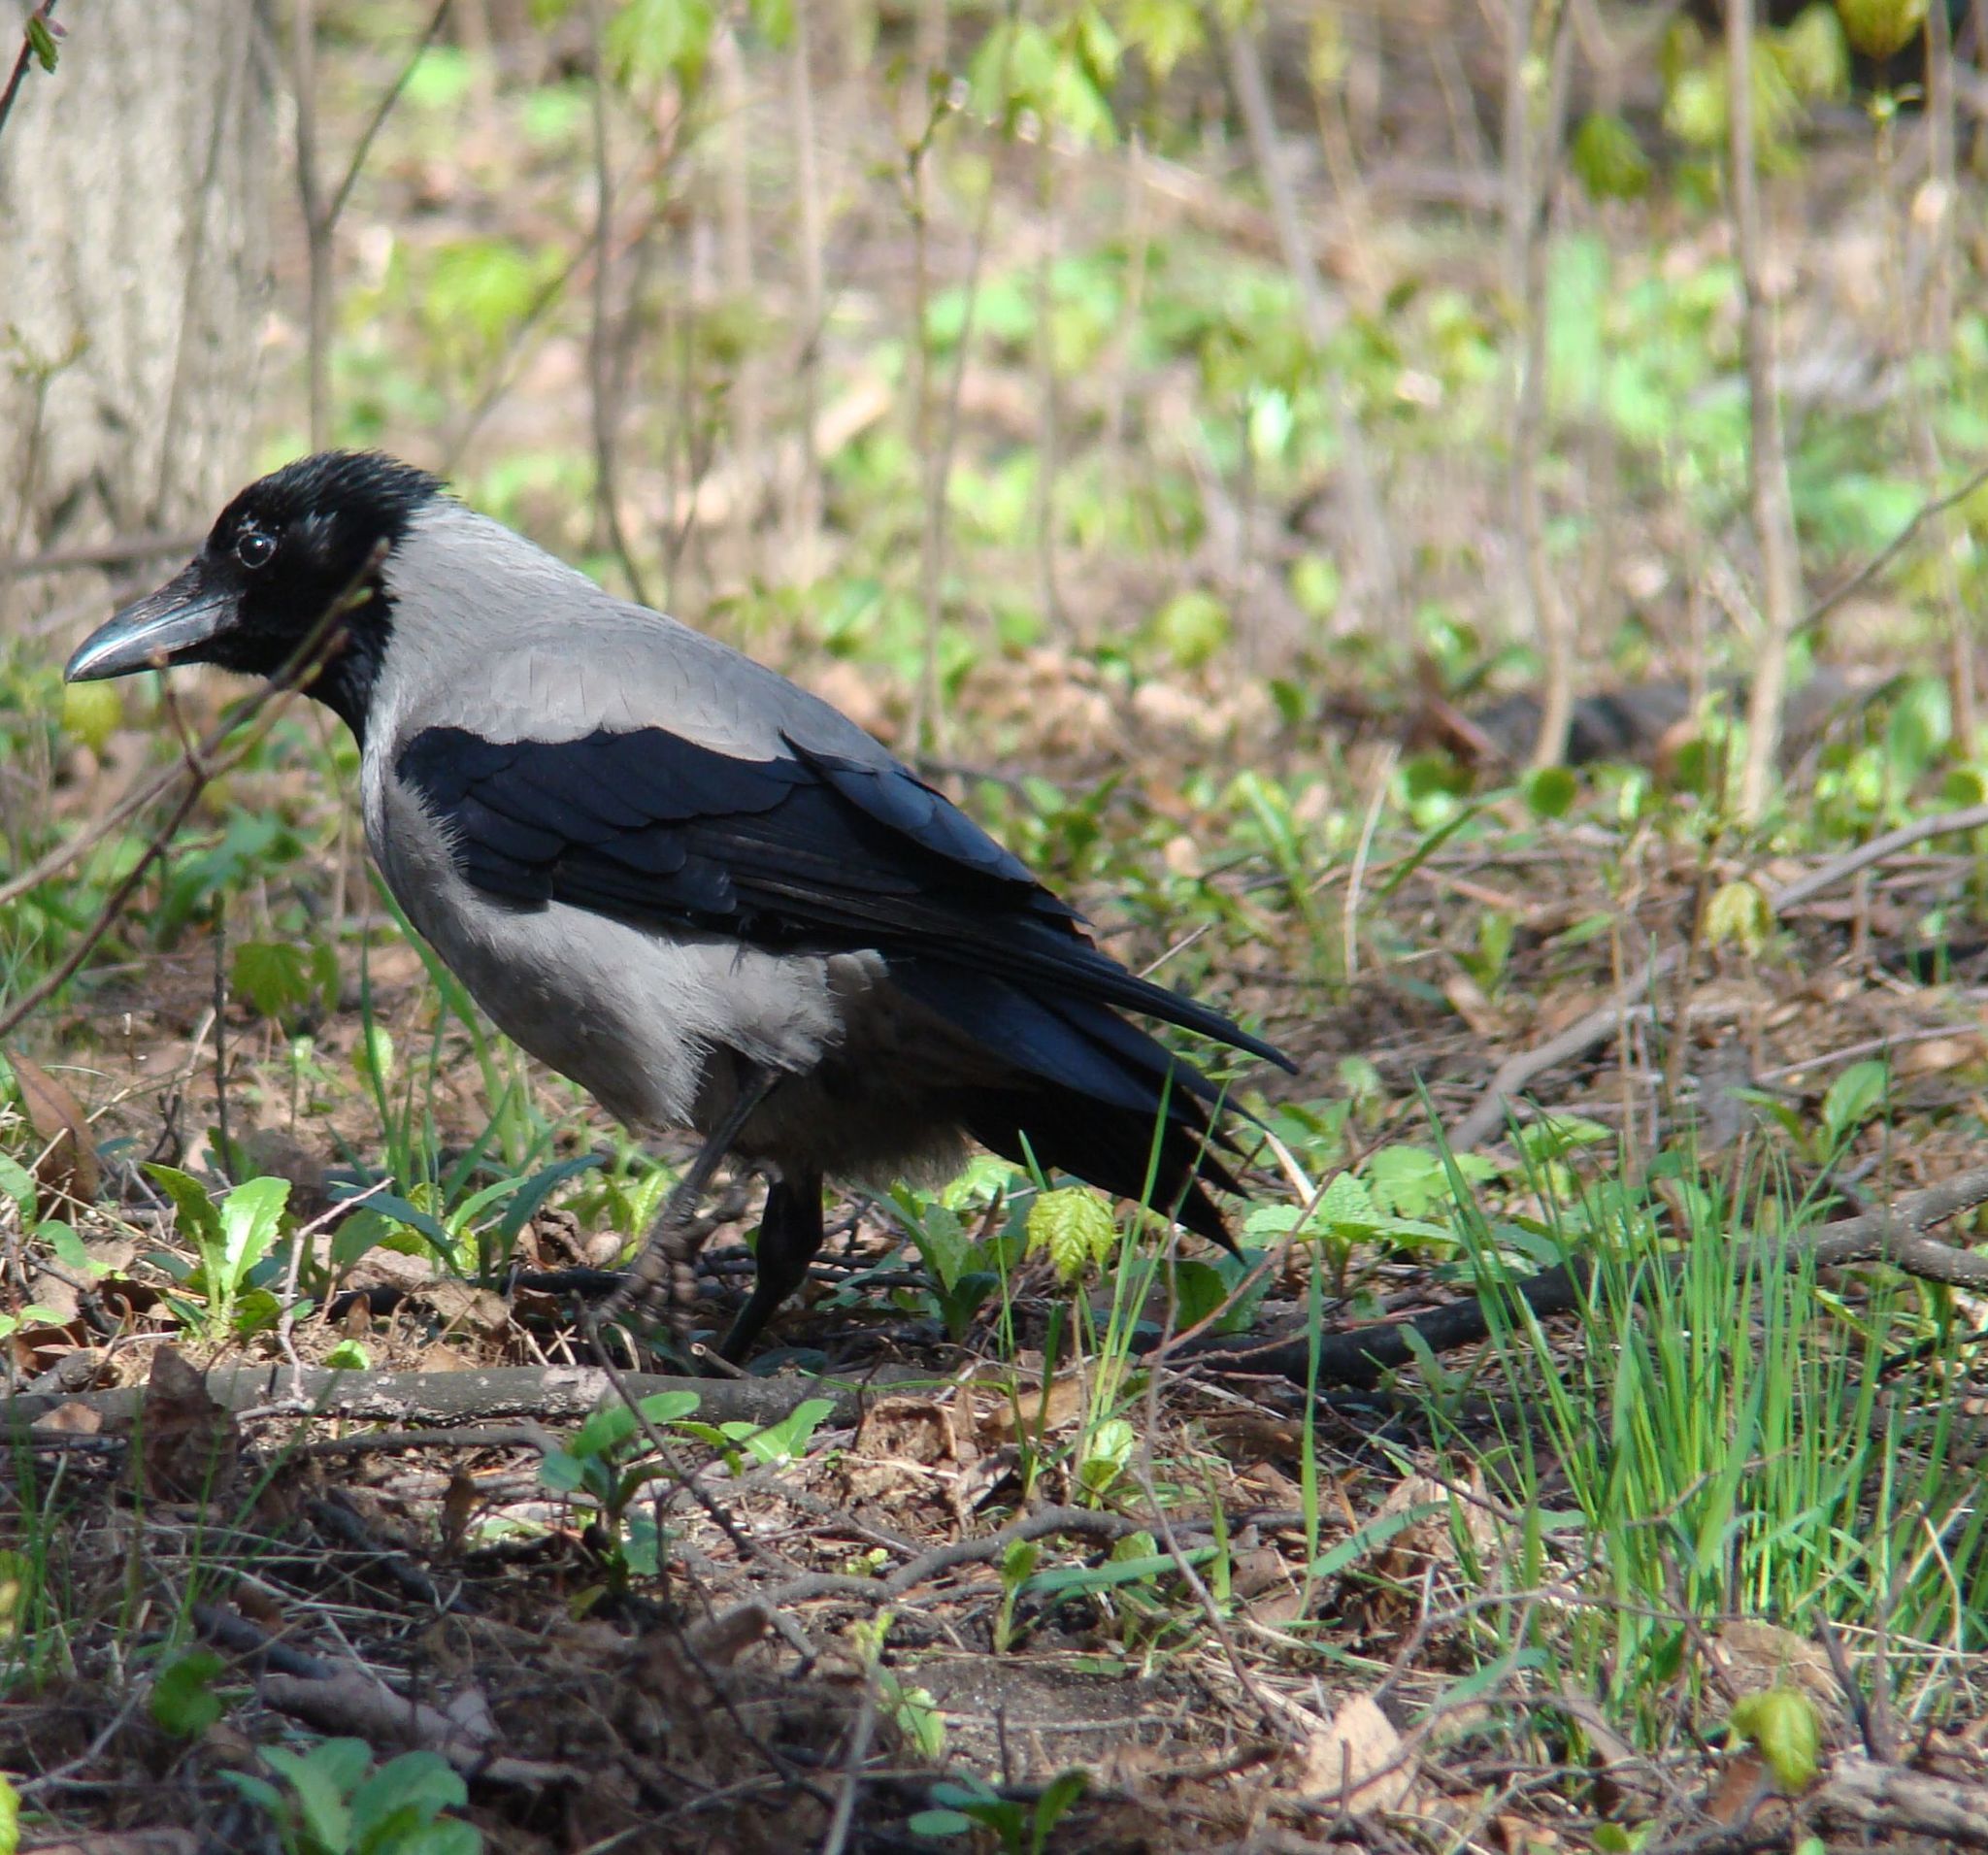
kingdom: Animalia
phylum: Chordata
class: Aves
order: Passeriformes
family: Corvidae
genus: Corvus
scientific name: Corvus cornix
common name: Hooded crow
